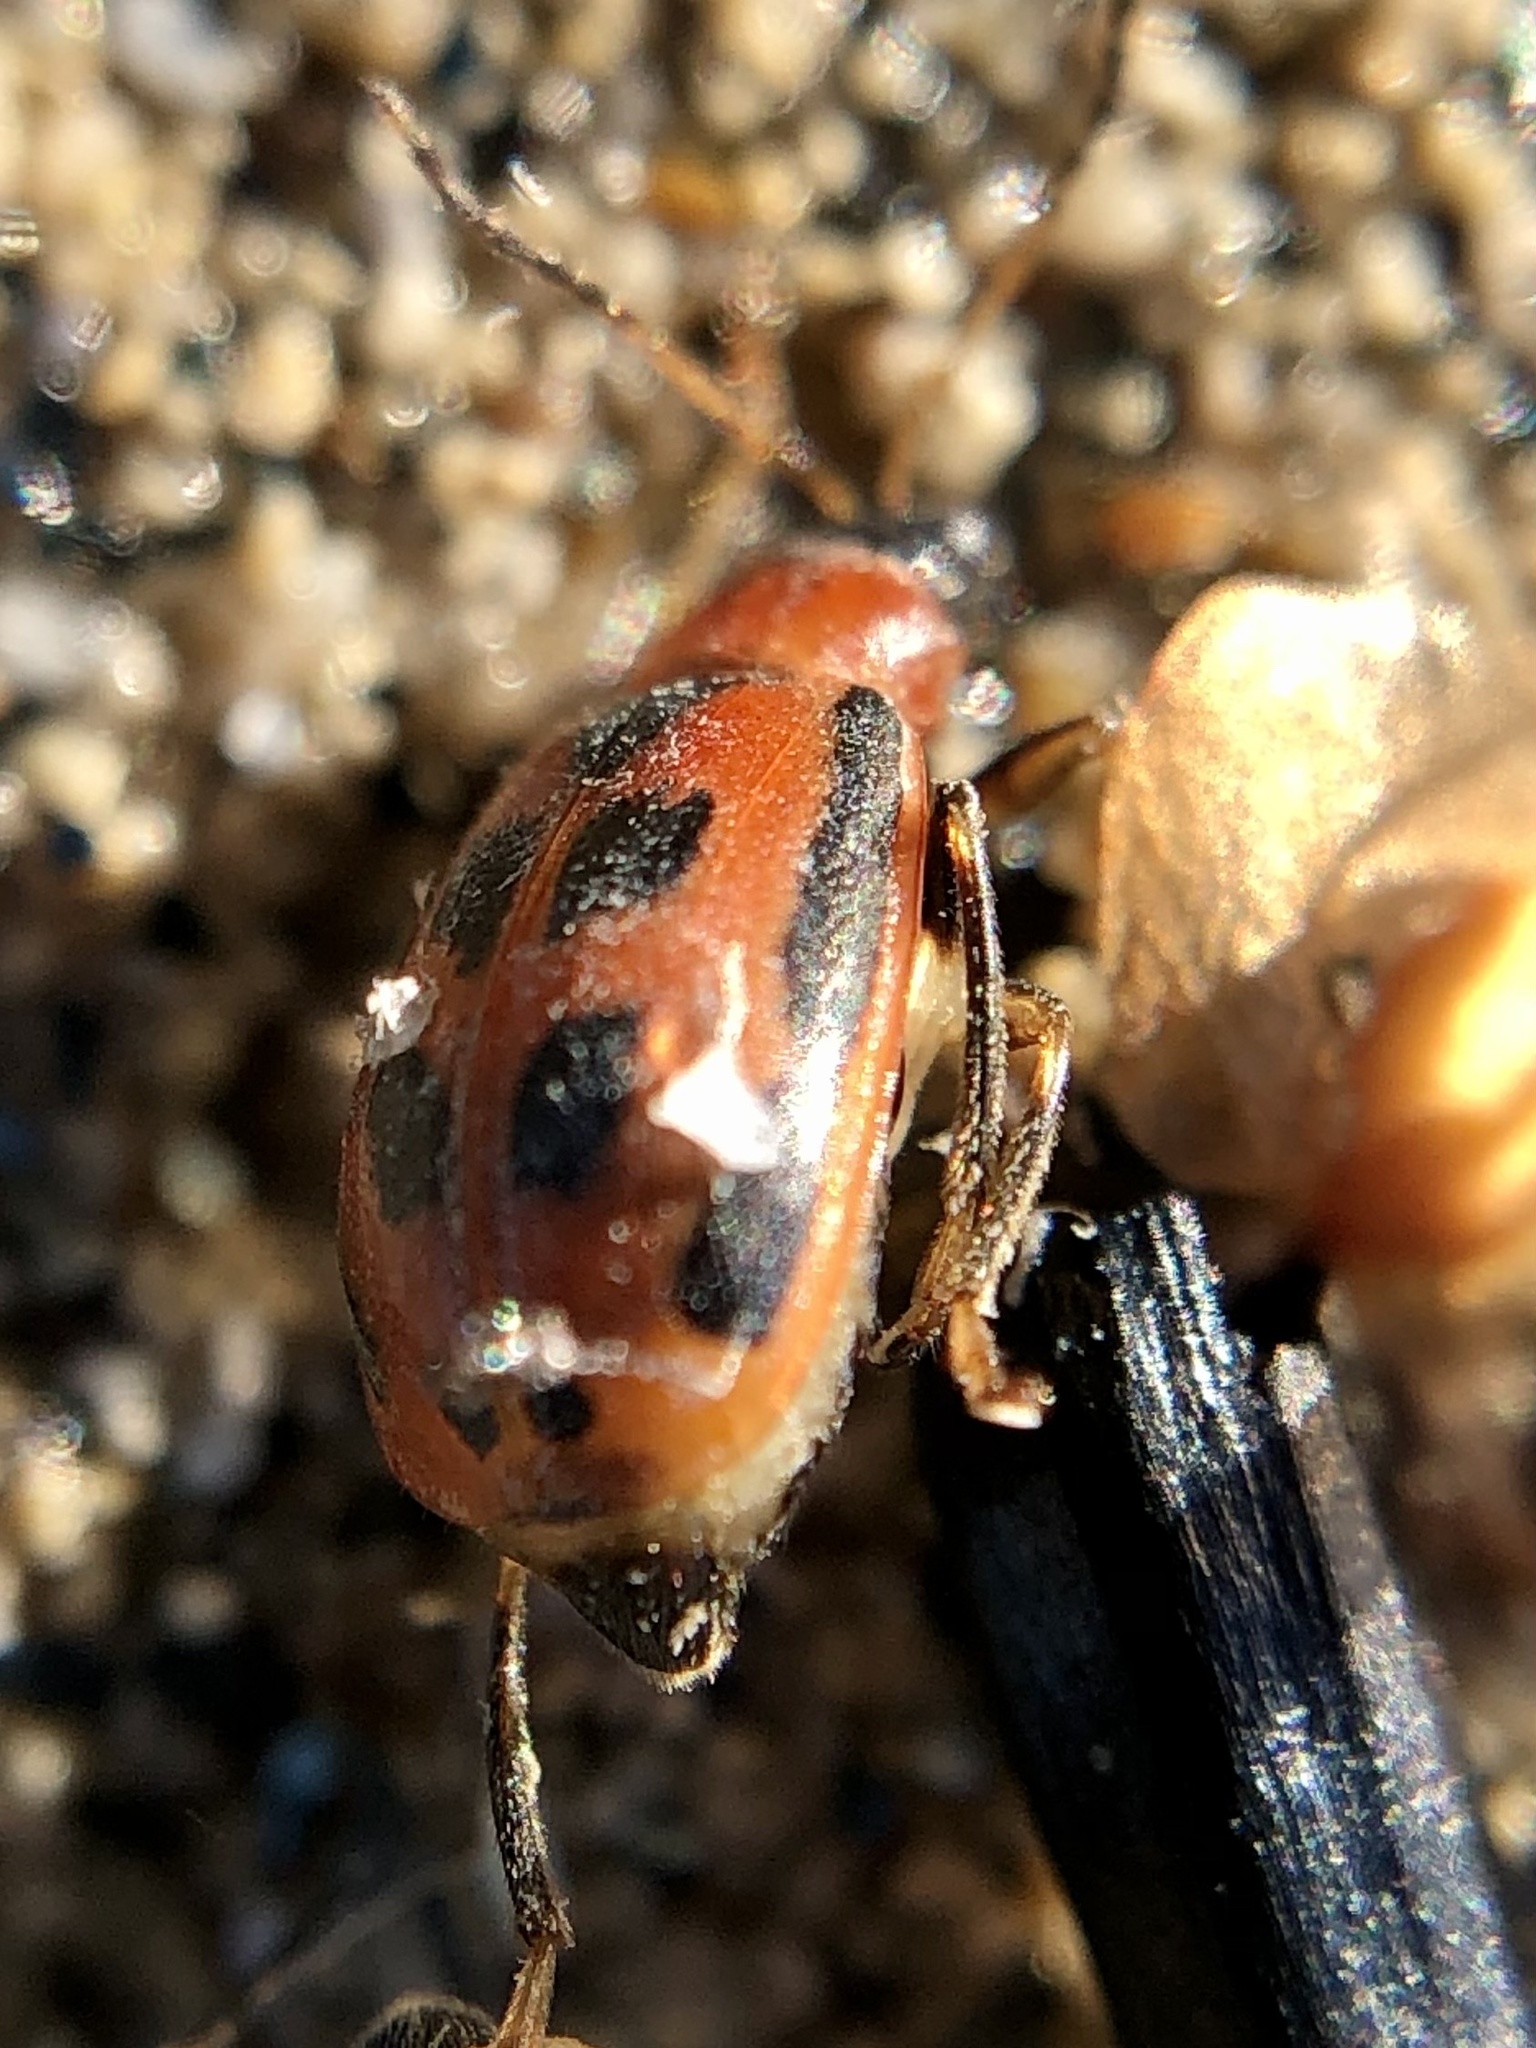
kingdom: Animalia
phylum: Arthropoda
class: Insecta
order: Coleoptera
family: Chrysomelidae
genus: Cerotoma
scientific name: Cerotoma trifurcata
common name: Bean leaf beetle
